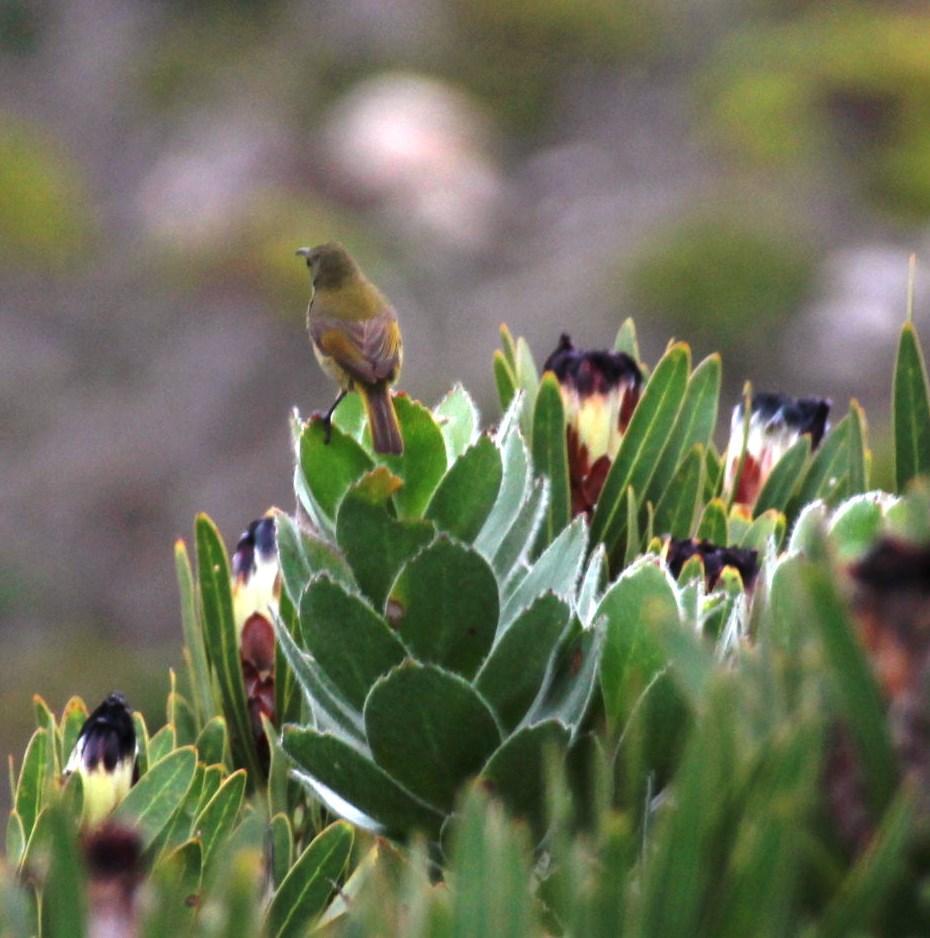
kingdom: Animalia
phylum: Chordata
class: Aves
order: Passeriformes
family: Nectariniidae
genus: Anthobaphes
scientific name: Anthobaphes violacea
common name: Orange-breasted sunbird
